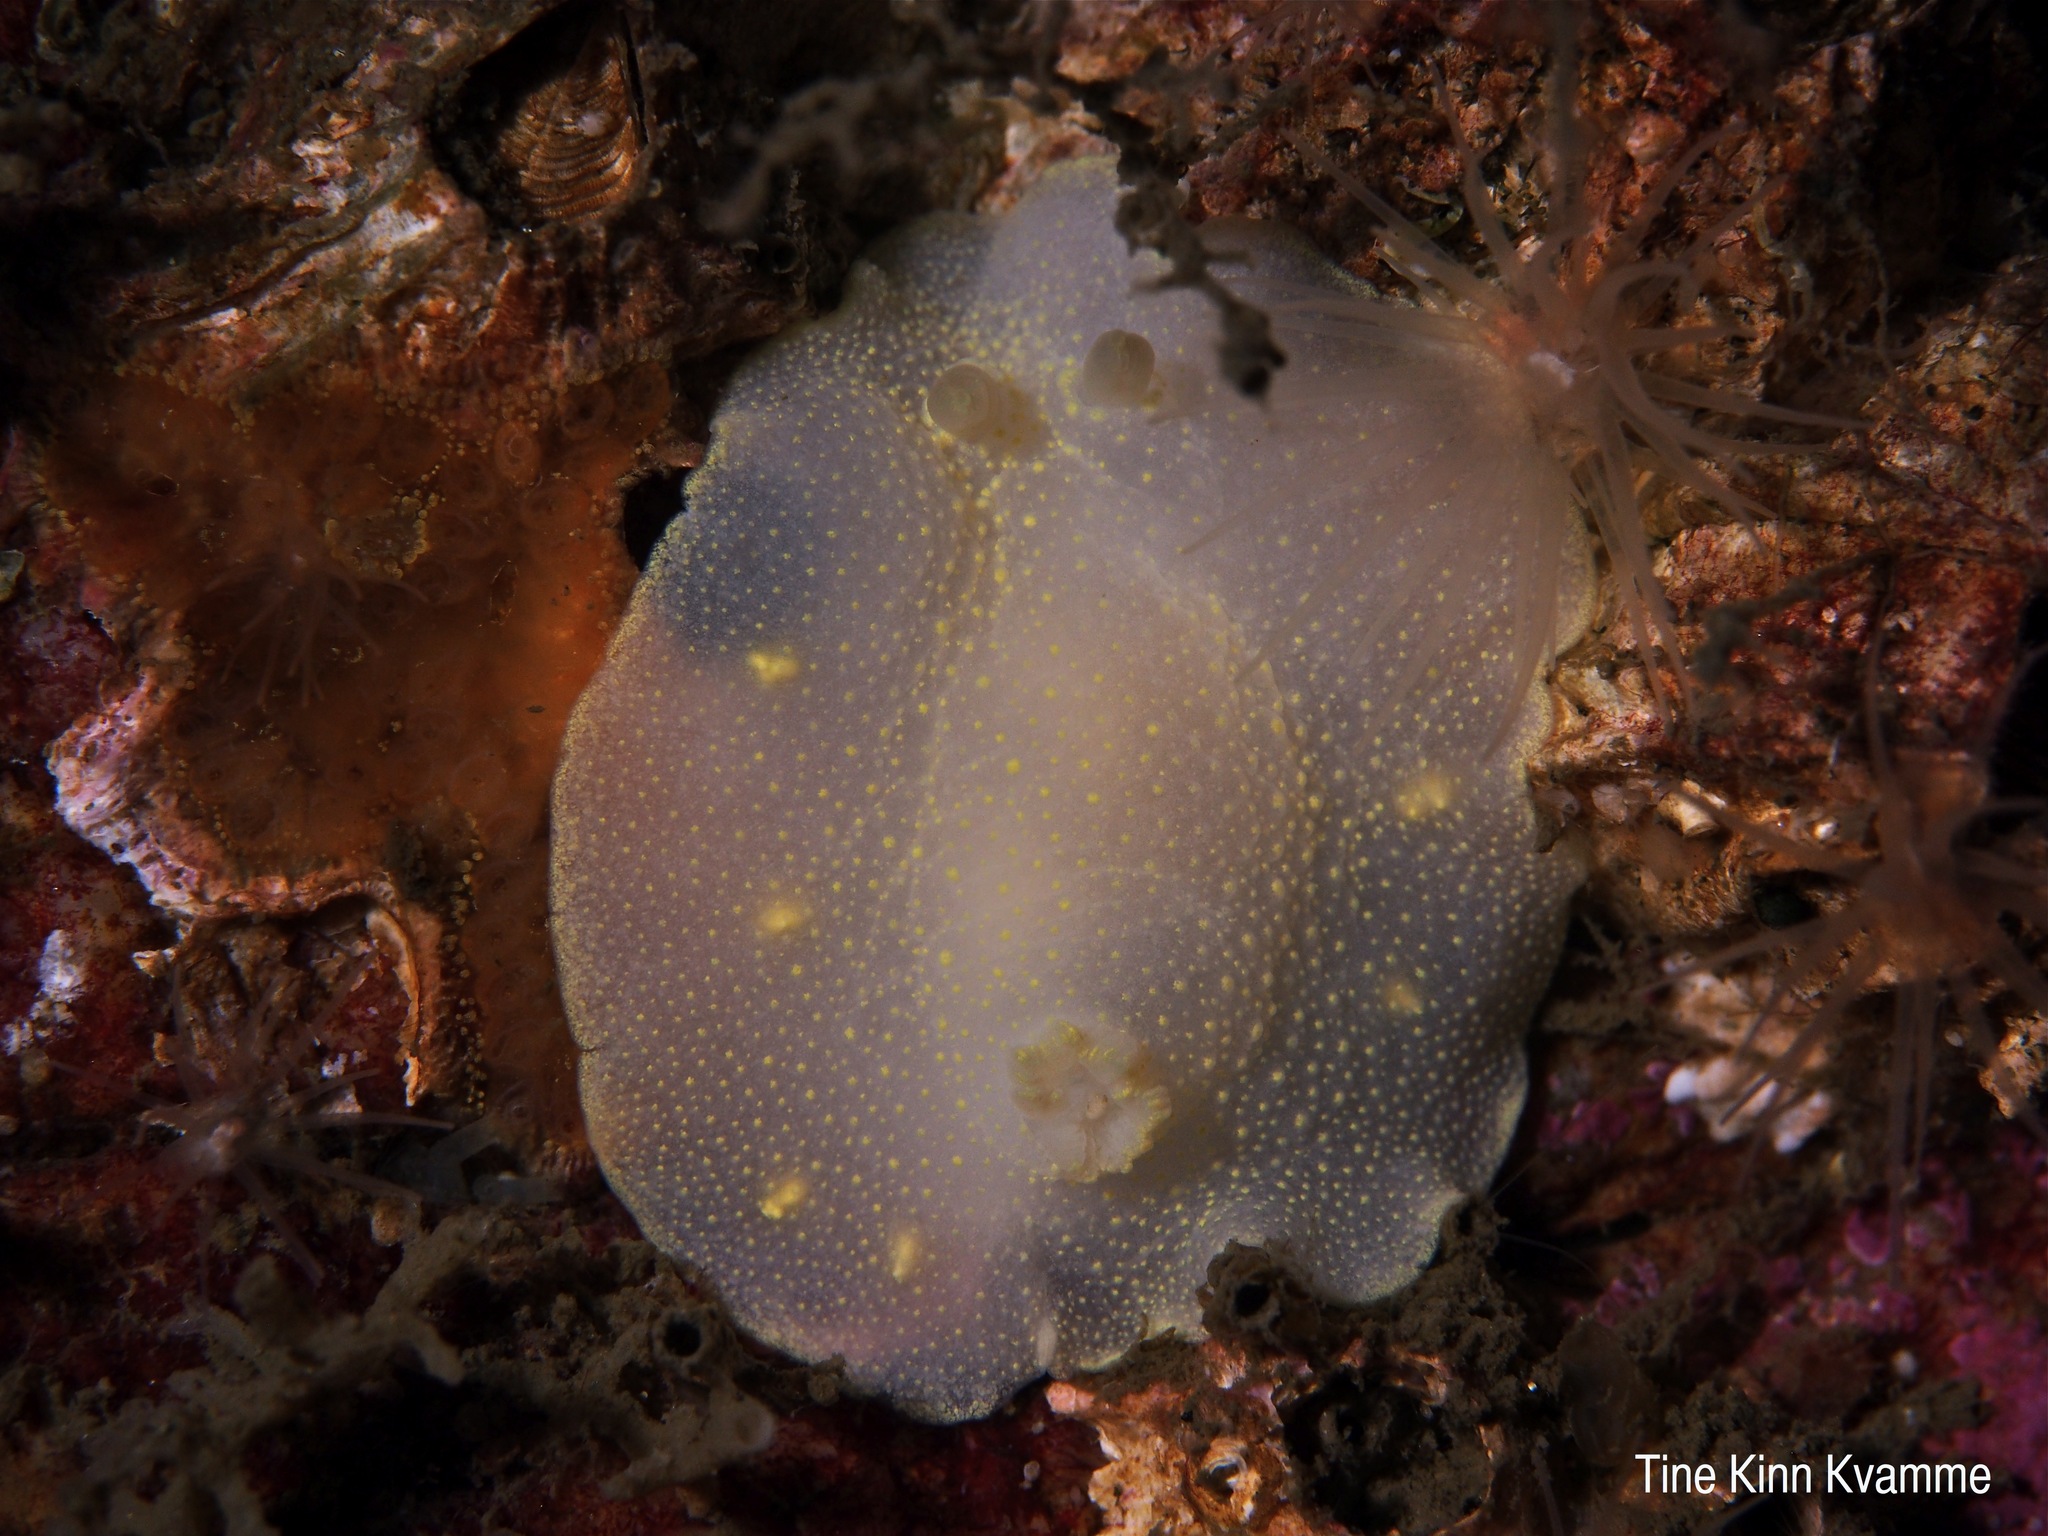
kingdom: Animalia
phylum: Mollusca
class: Gastropoda
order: Nudibranchia
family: Cadlinidae
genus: Cadlina
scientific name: Cadlina laevis
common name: White atlantic cadlina
